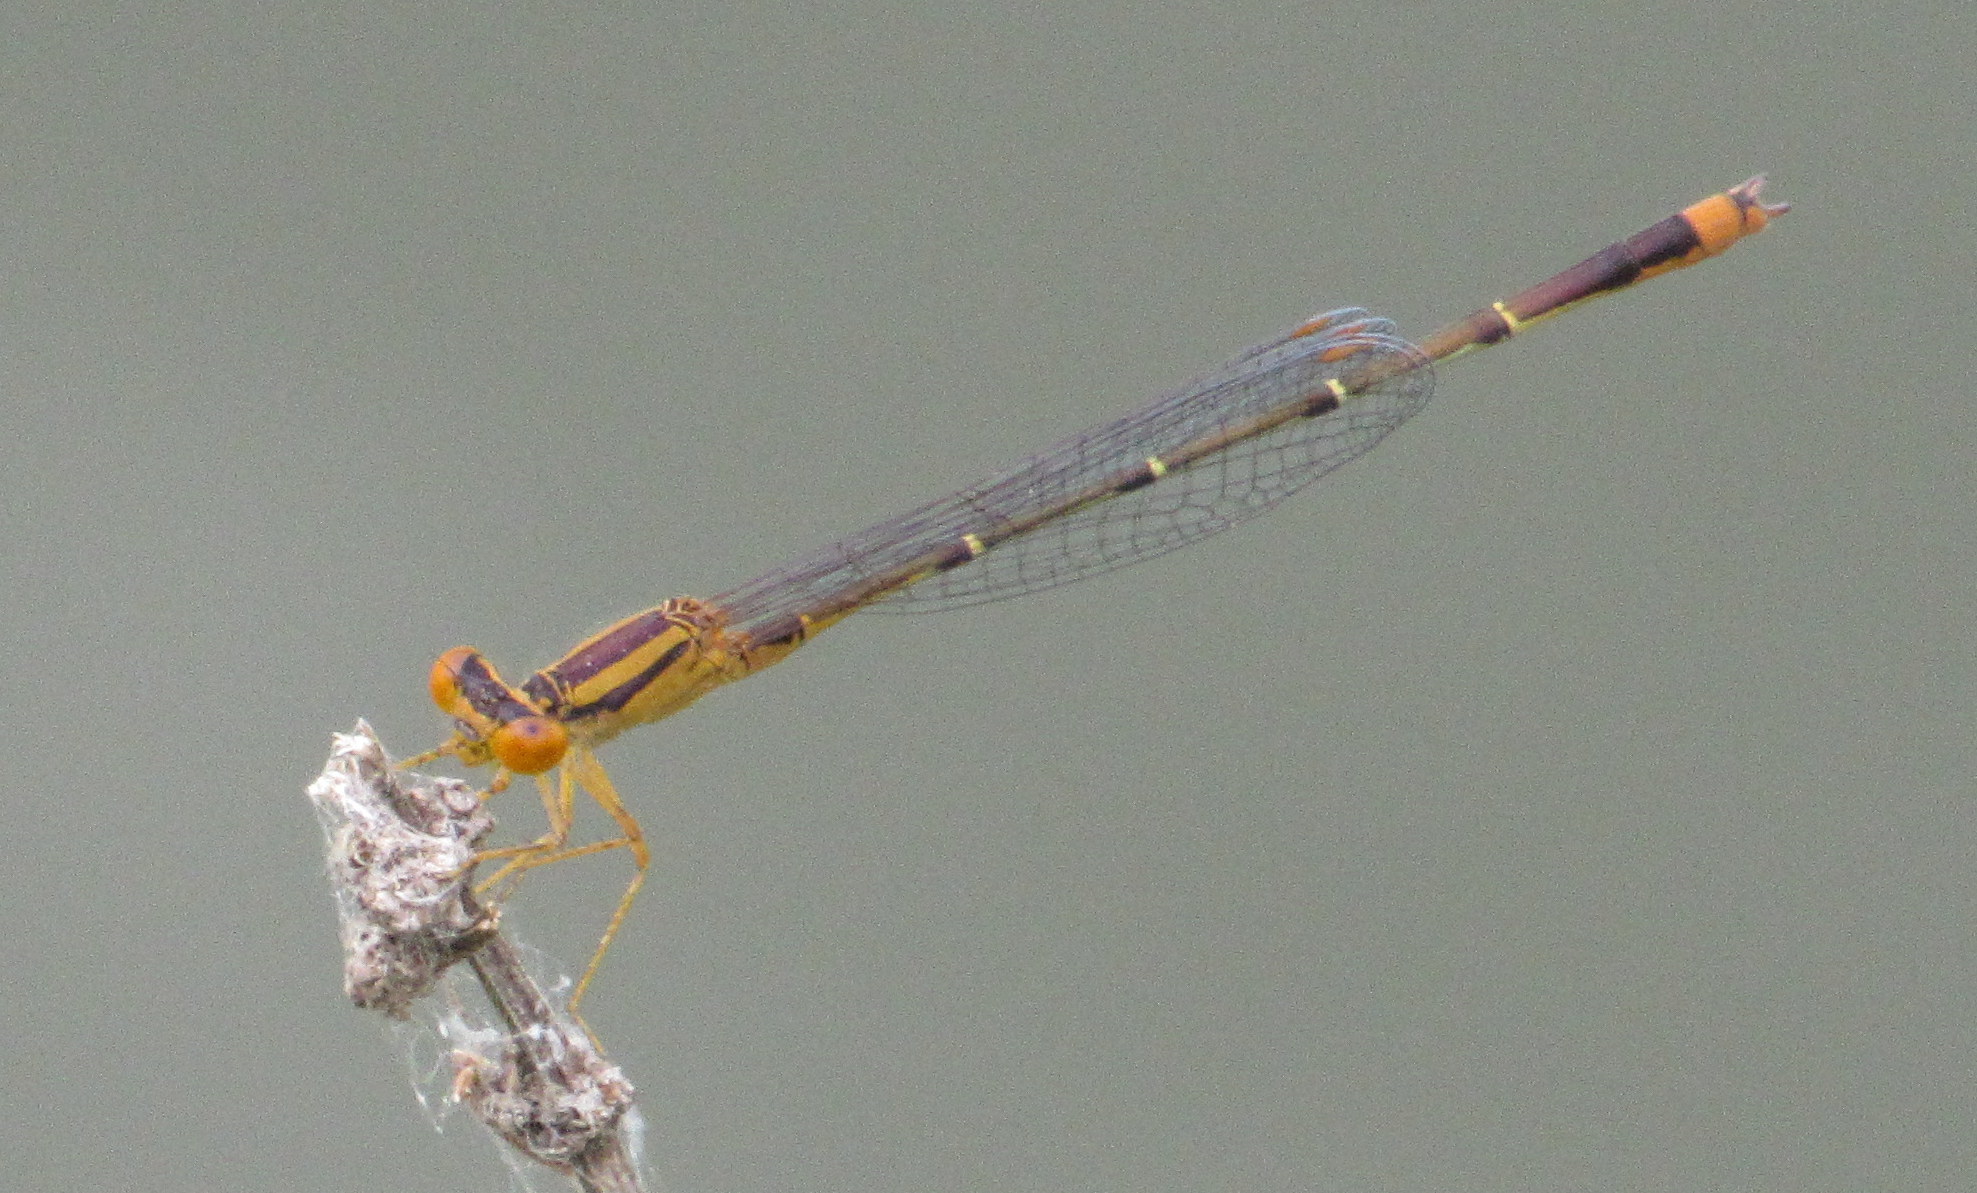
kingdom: Animalia
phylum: Arthropoda
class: Insecta
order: Odonata
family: Coenagrionidae
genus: Enallagma
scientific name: Enallagma signatum
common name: Orange bluet
